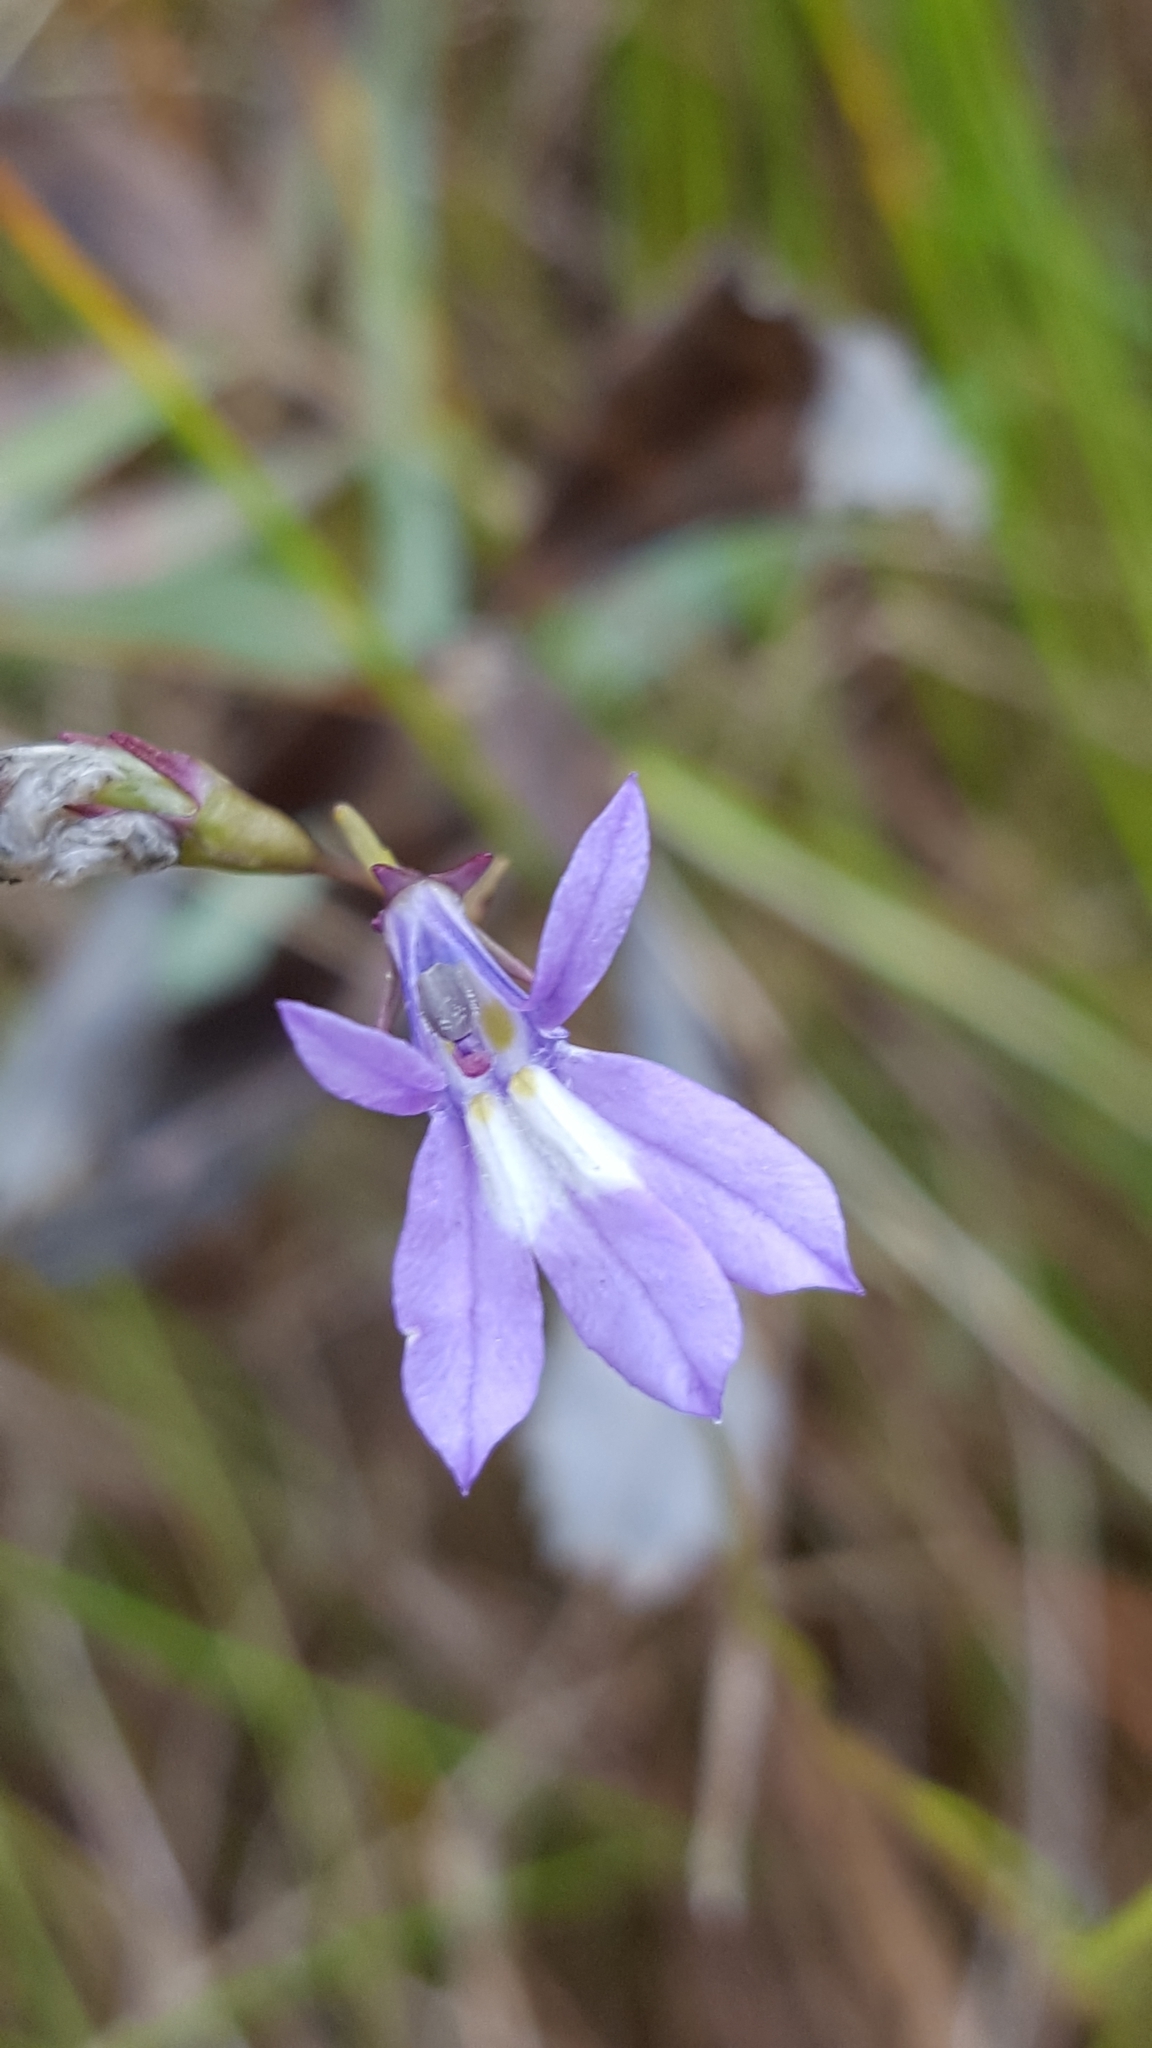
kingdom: Plantae
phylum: Tracheophyta
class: Magnoliopsida
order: Asterales
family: Campanulaceae
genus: Lobelia
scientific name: Lobelia kalmii
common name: Kalm's lobelia
